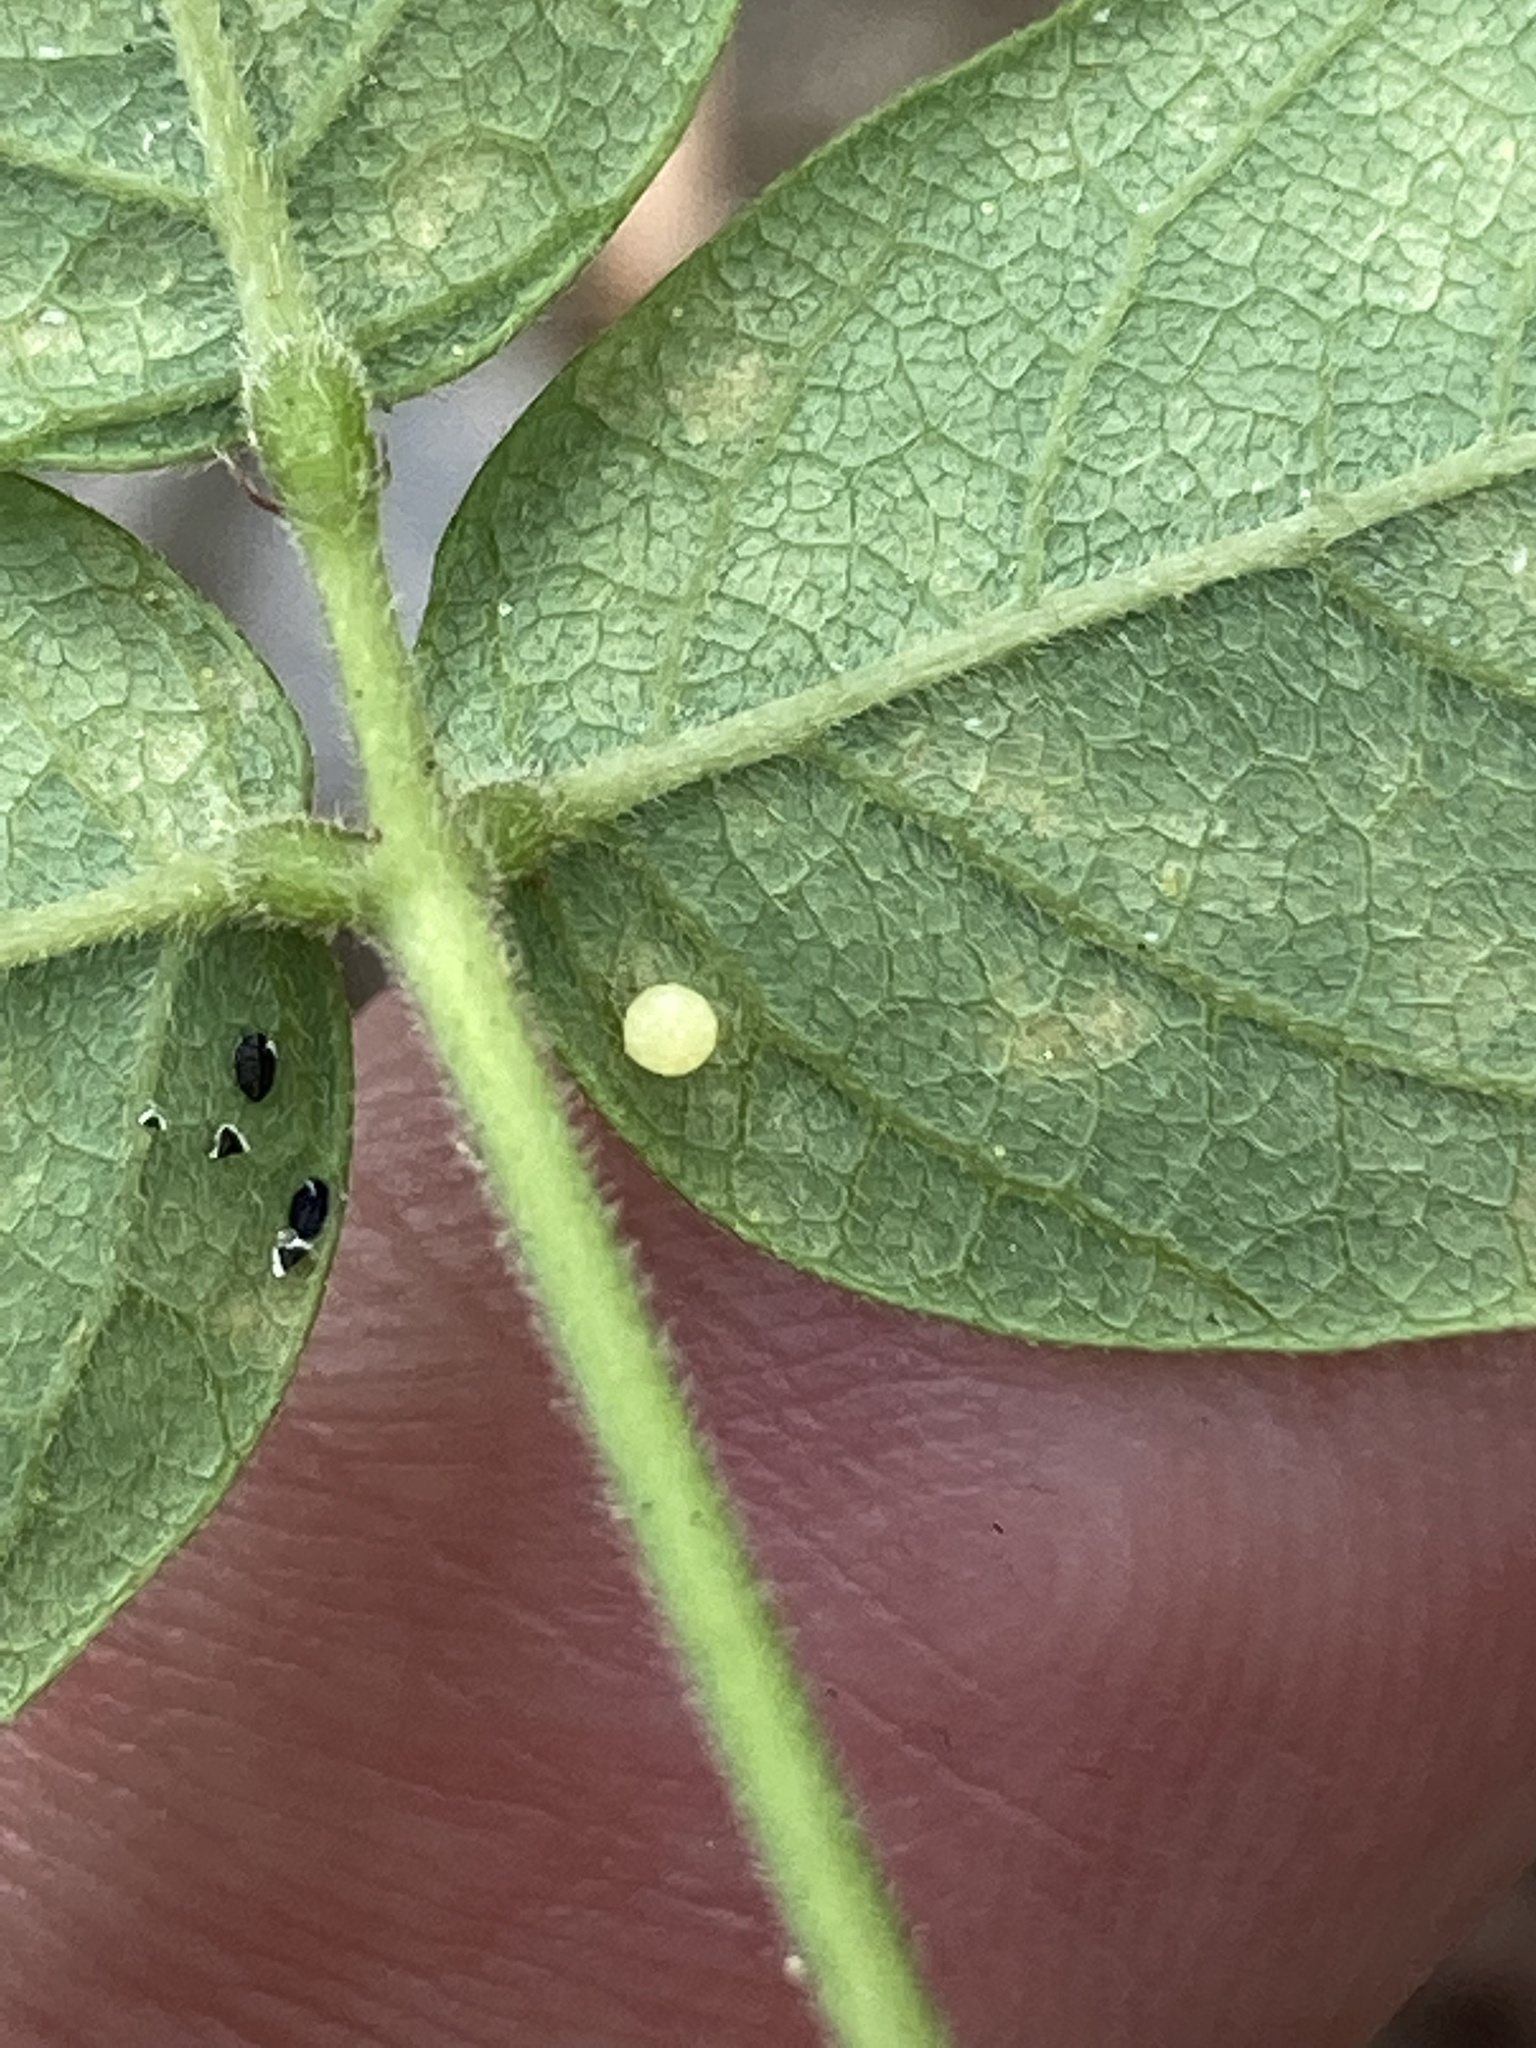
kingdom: Animalia
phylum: Arthropoda
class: Insecta
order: Lepidoptera
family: Hesperiidae
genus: Urbanus
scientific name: Urbanus proteus
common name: Long-tailed skipper
